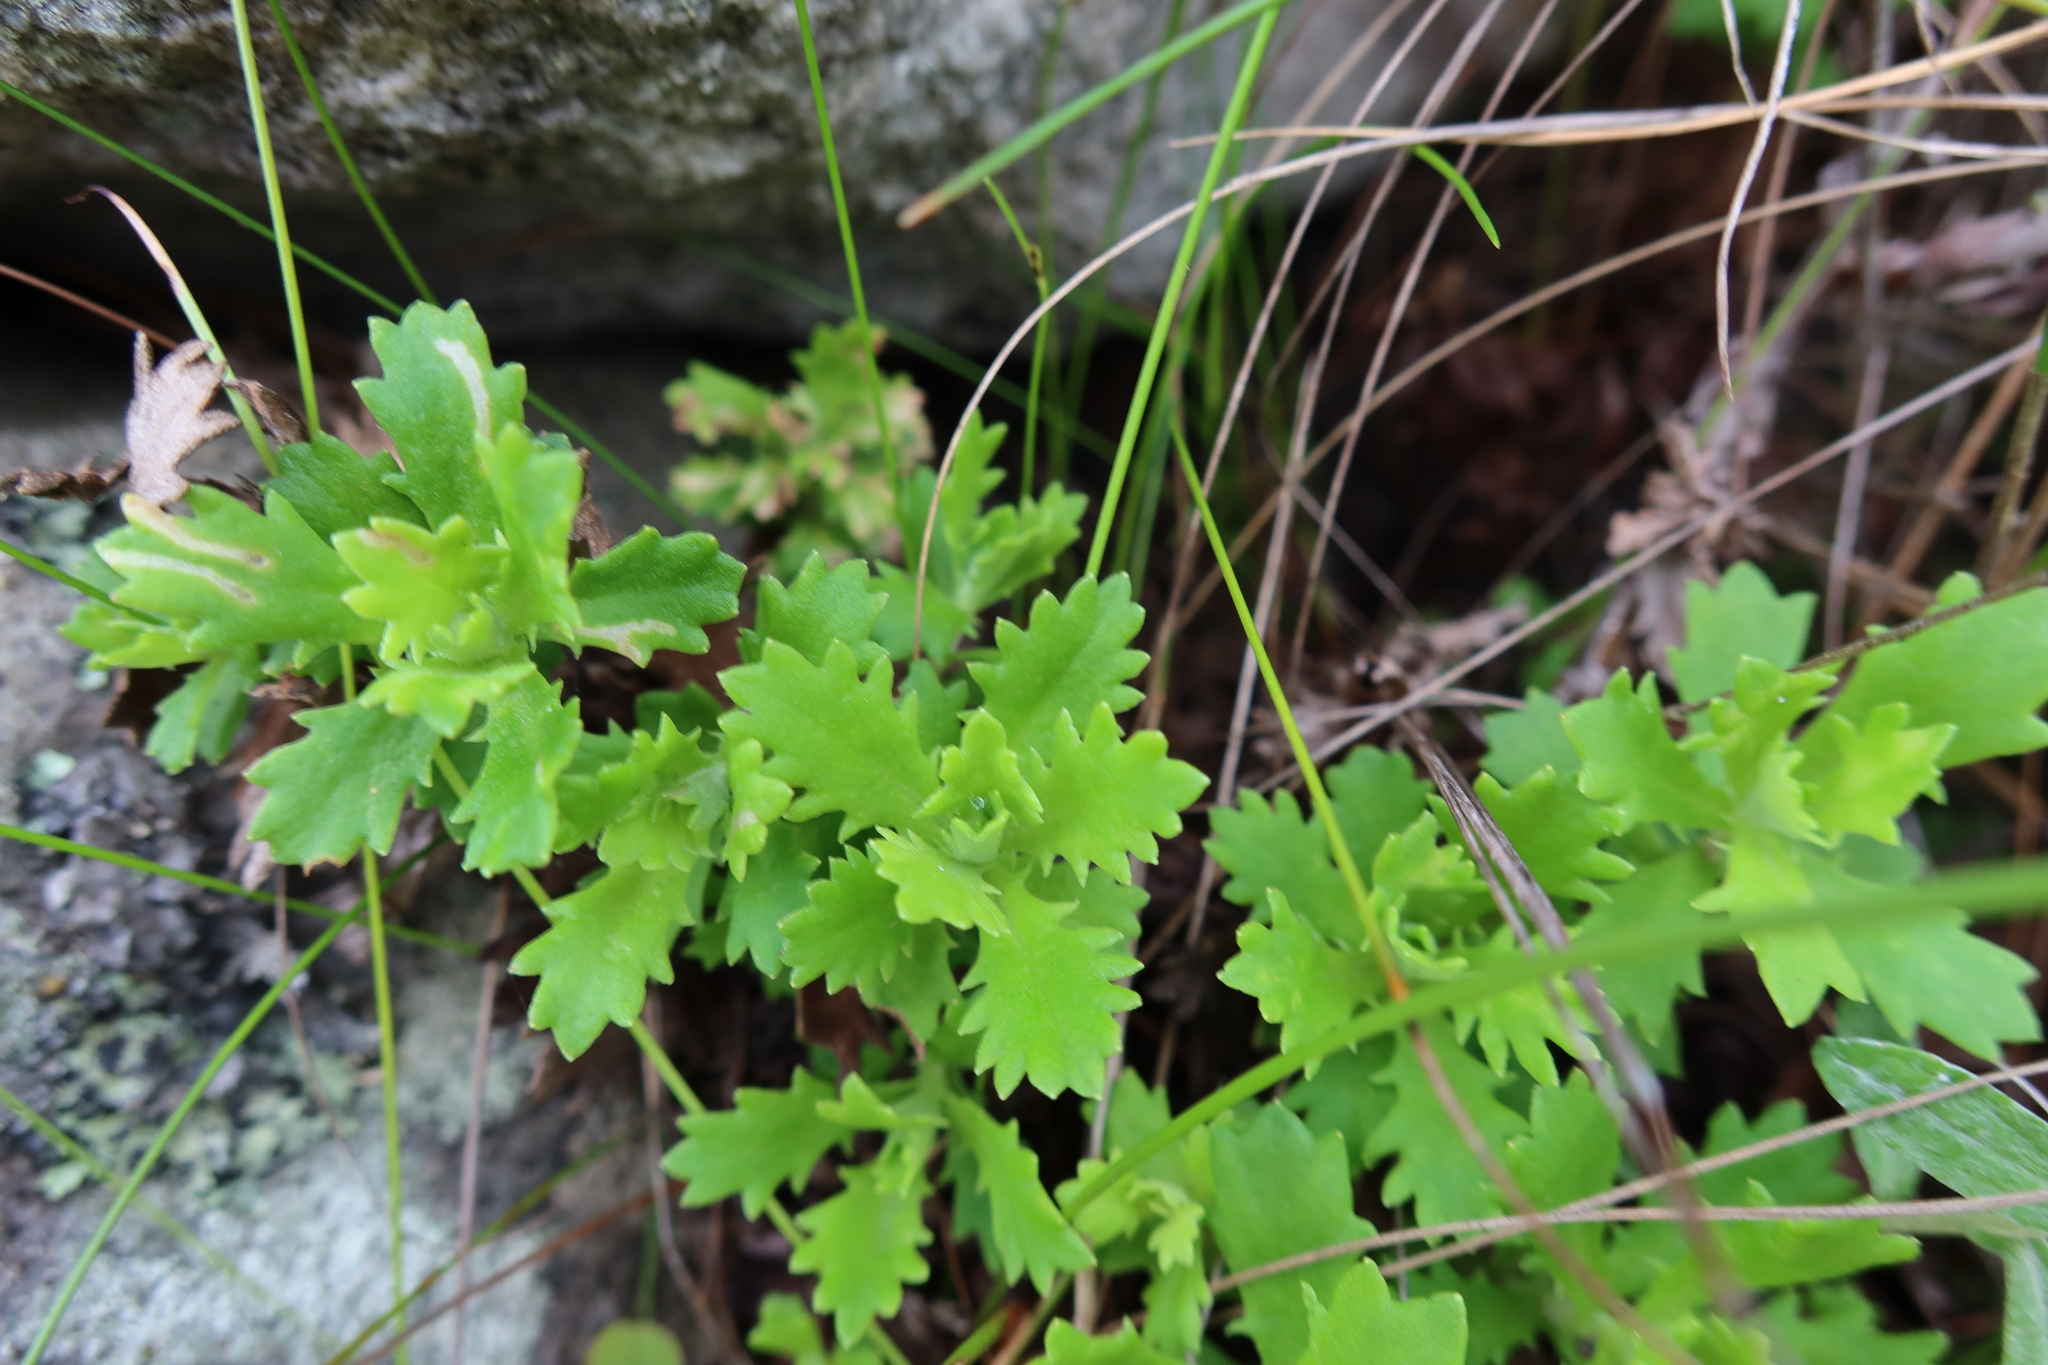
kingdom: Plantae
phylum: Tracheophyta
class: Magnoliopsida
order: Asterales
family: Asteraceae
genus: Osmitopsis
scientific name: Osmitopsis dentata
